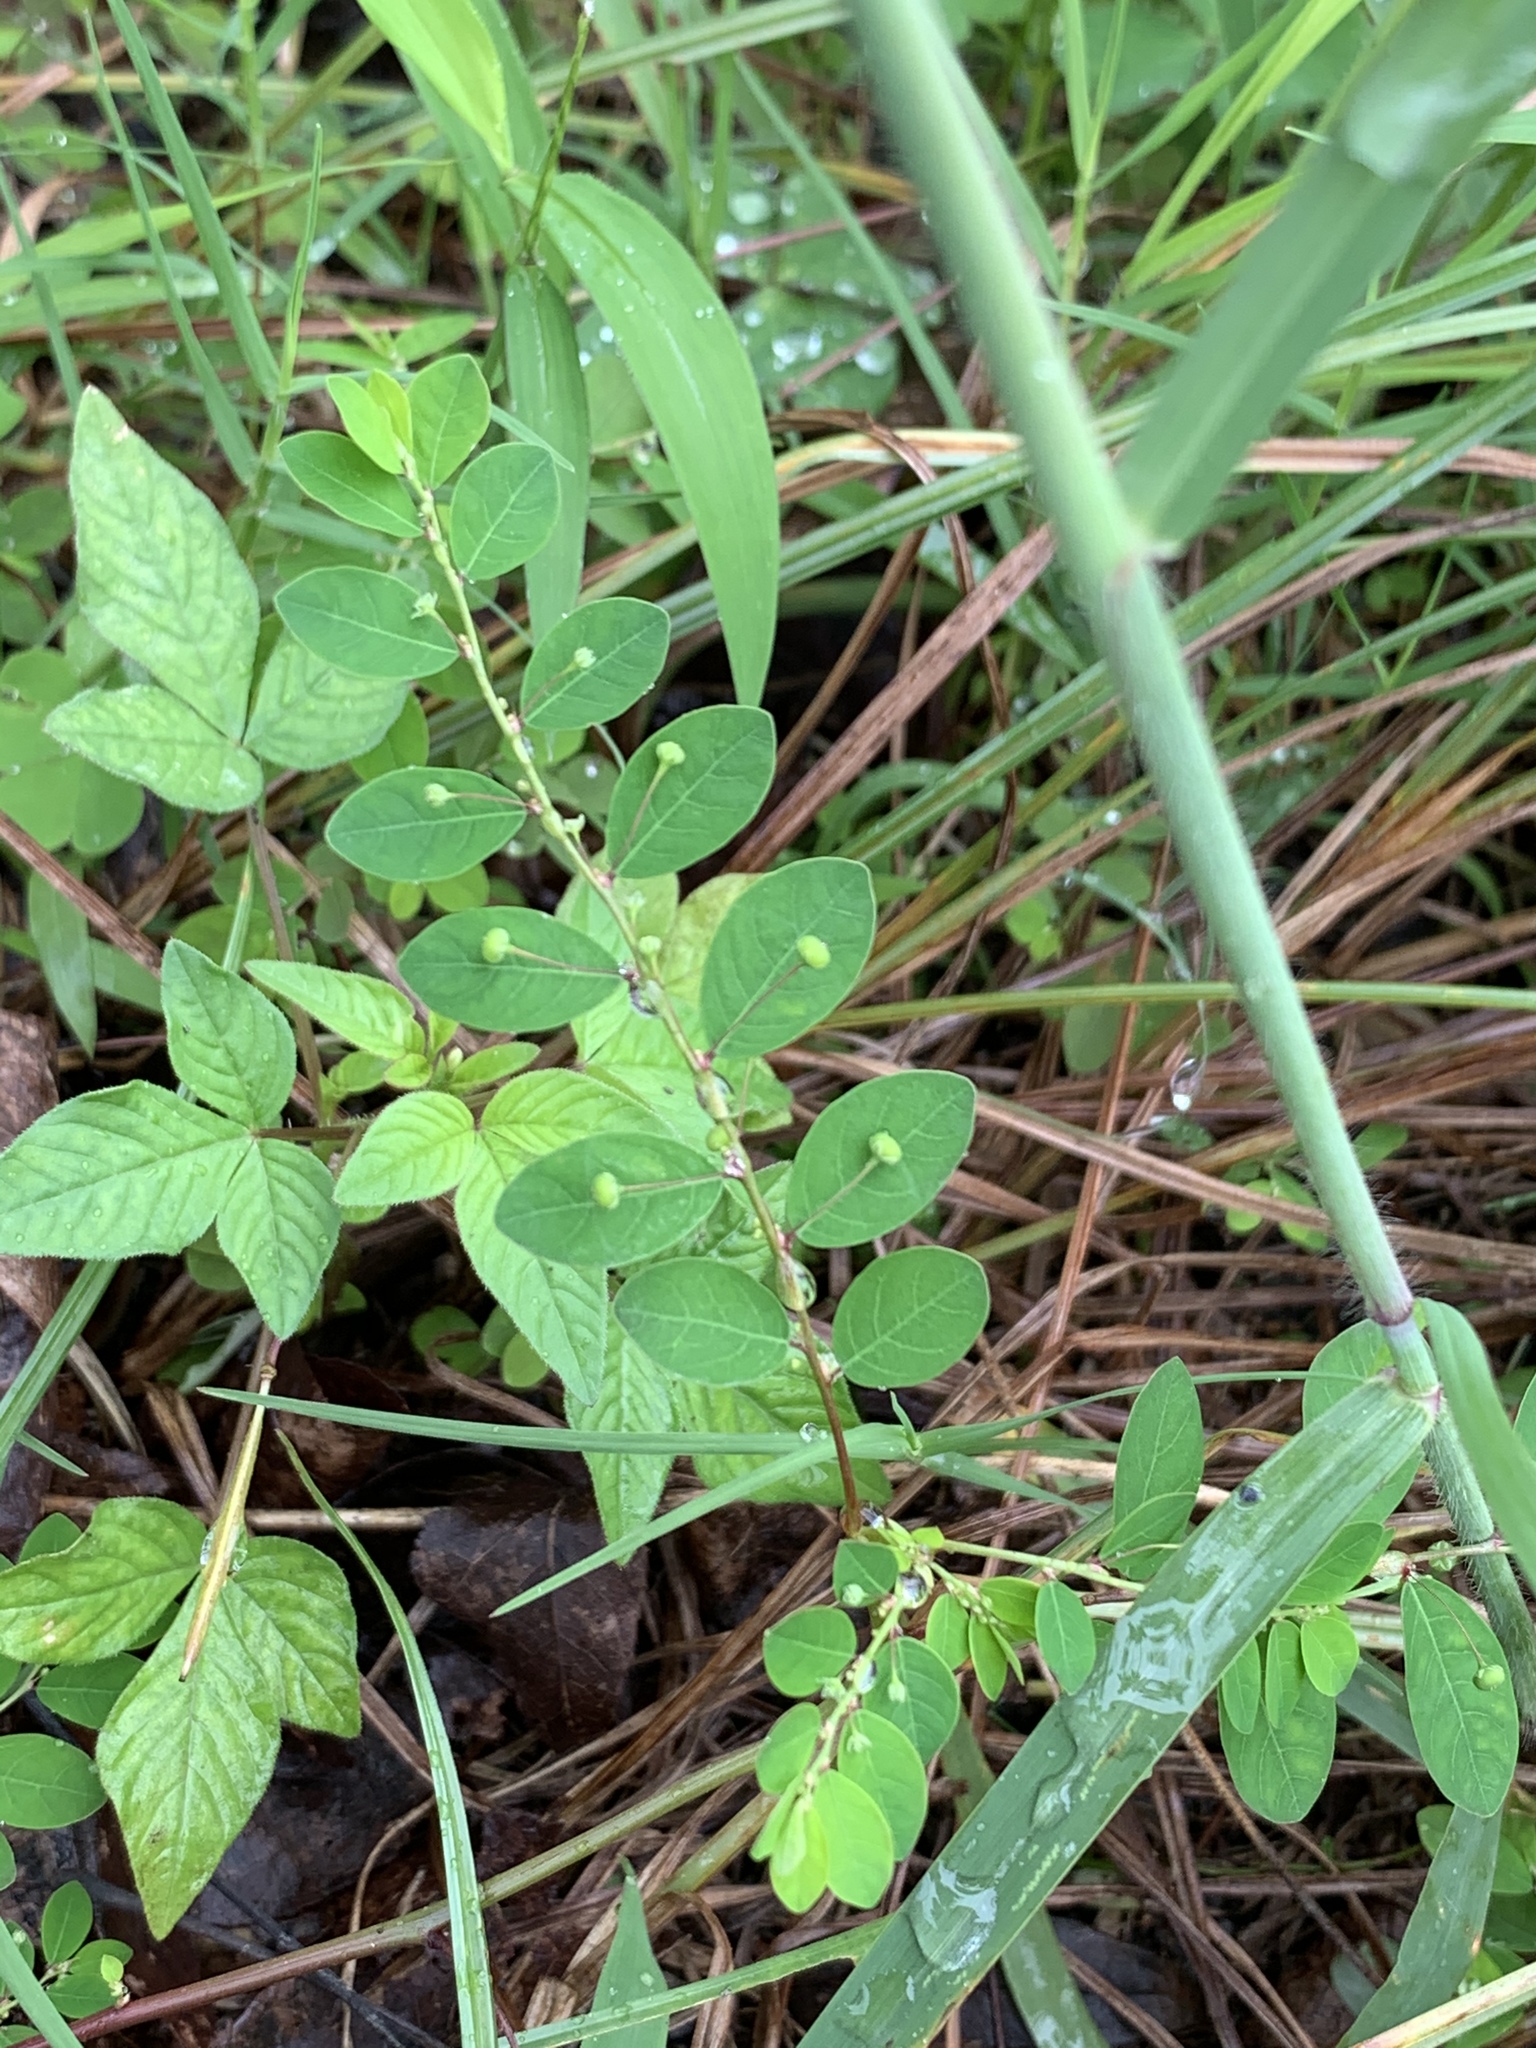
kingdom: Plantae
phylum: Tracheophyta
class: Magnoliopsida
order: Malpighiales
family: Phyllanthaceae
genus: Phyllanthus
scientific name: Phyllanthus tenellus
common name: Mascarene island leaf-flower
